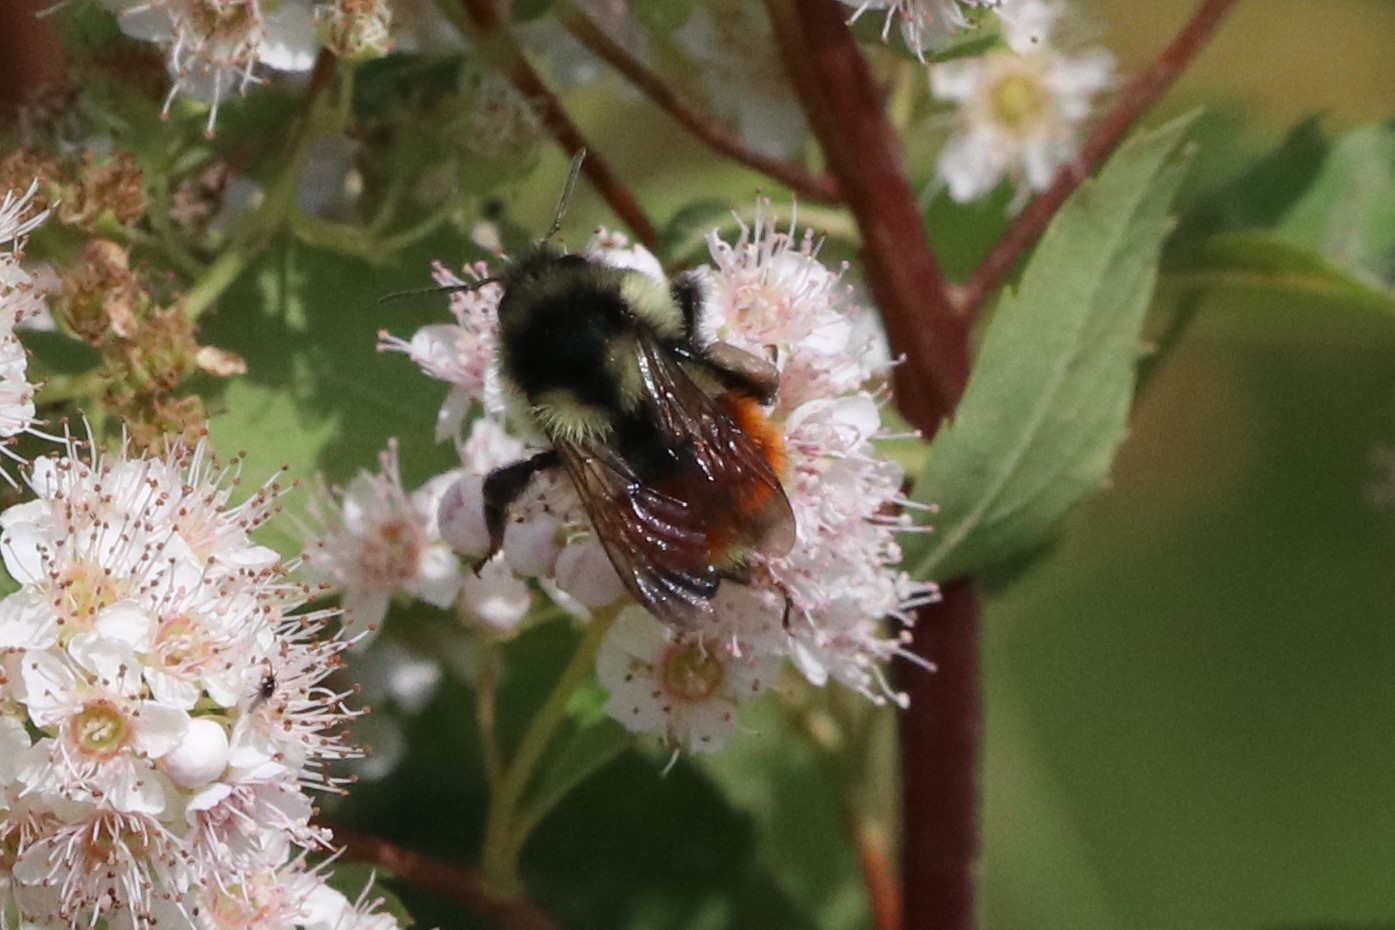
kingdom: Animalia
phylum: Arthropoda
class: Insecta
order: Hymenoptera
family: Apidae
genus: Bombus
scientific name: Bombus ternarius
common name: Tri-colored bumble bee
